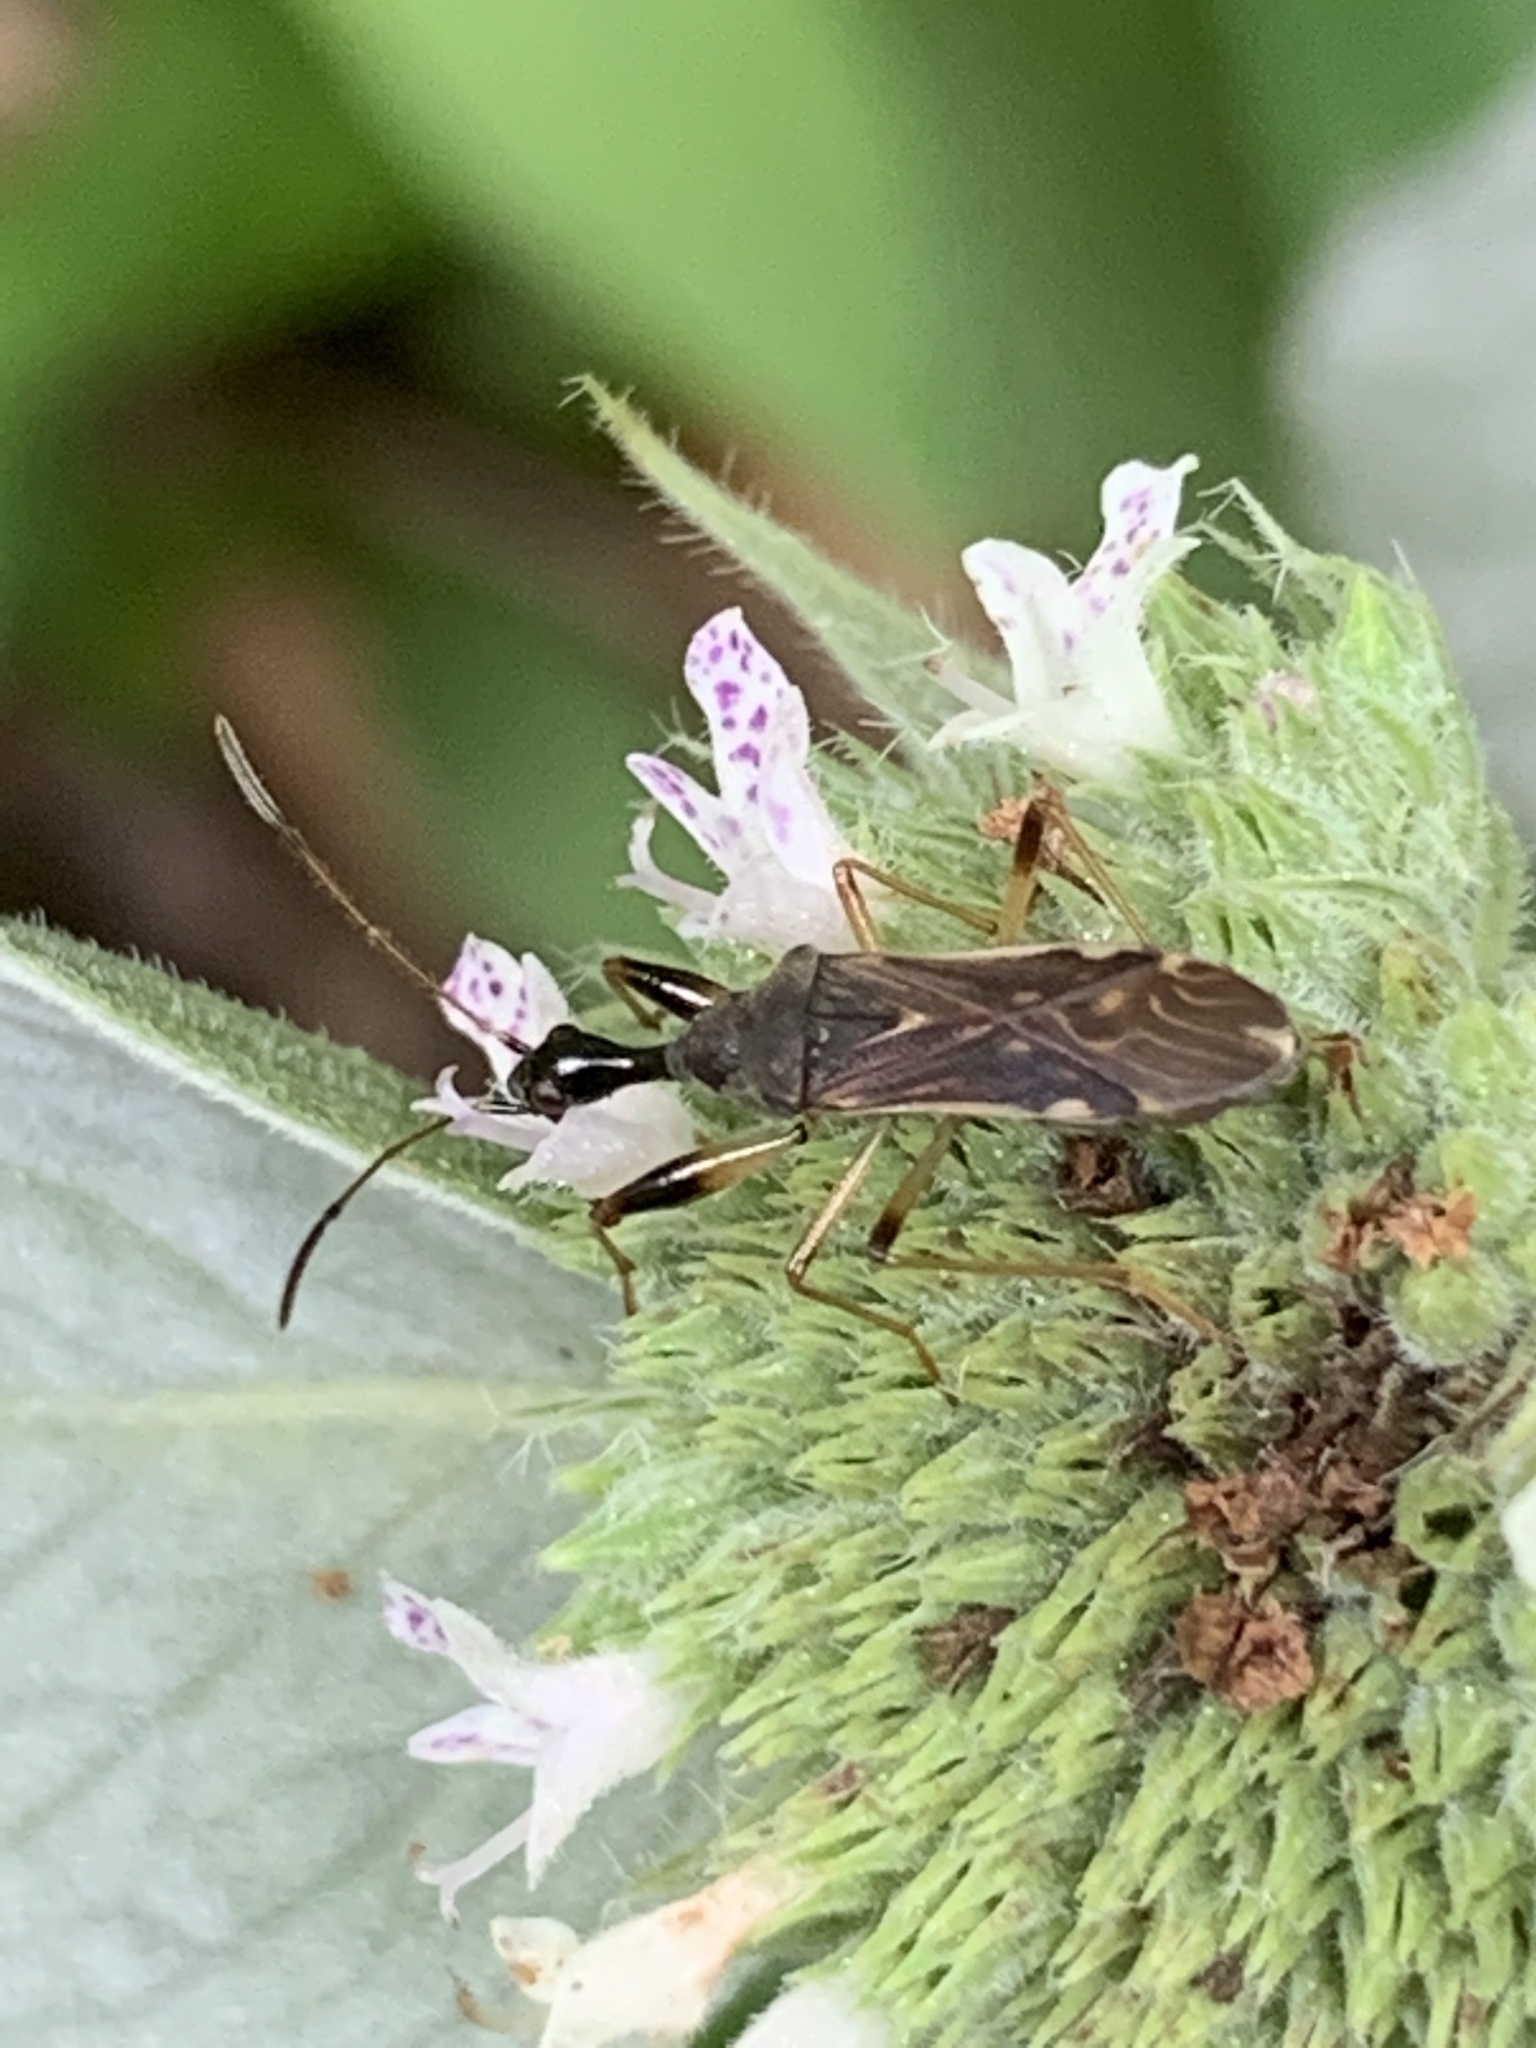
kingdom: Animalia
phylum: Arthropoda
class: Insecta
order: Hemiptera
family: Rhyparochromidae
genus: Myodocha
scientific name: Myodocha serripes
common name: Long-necked seed bug
